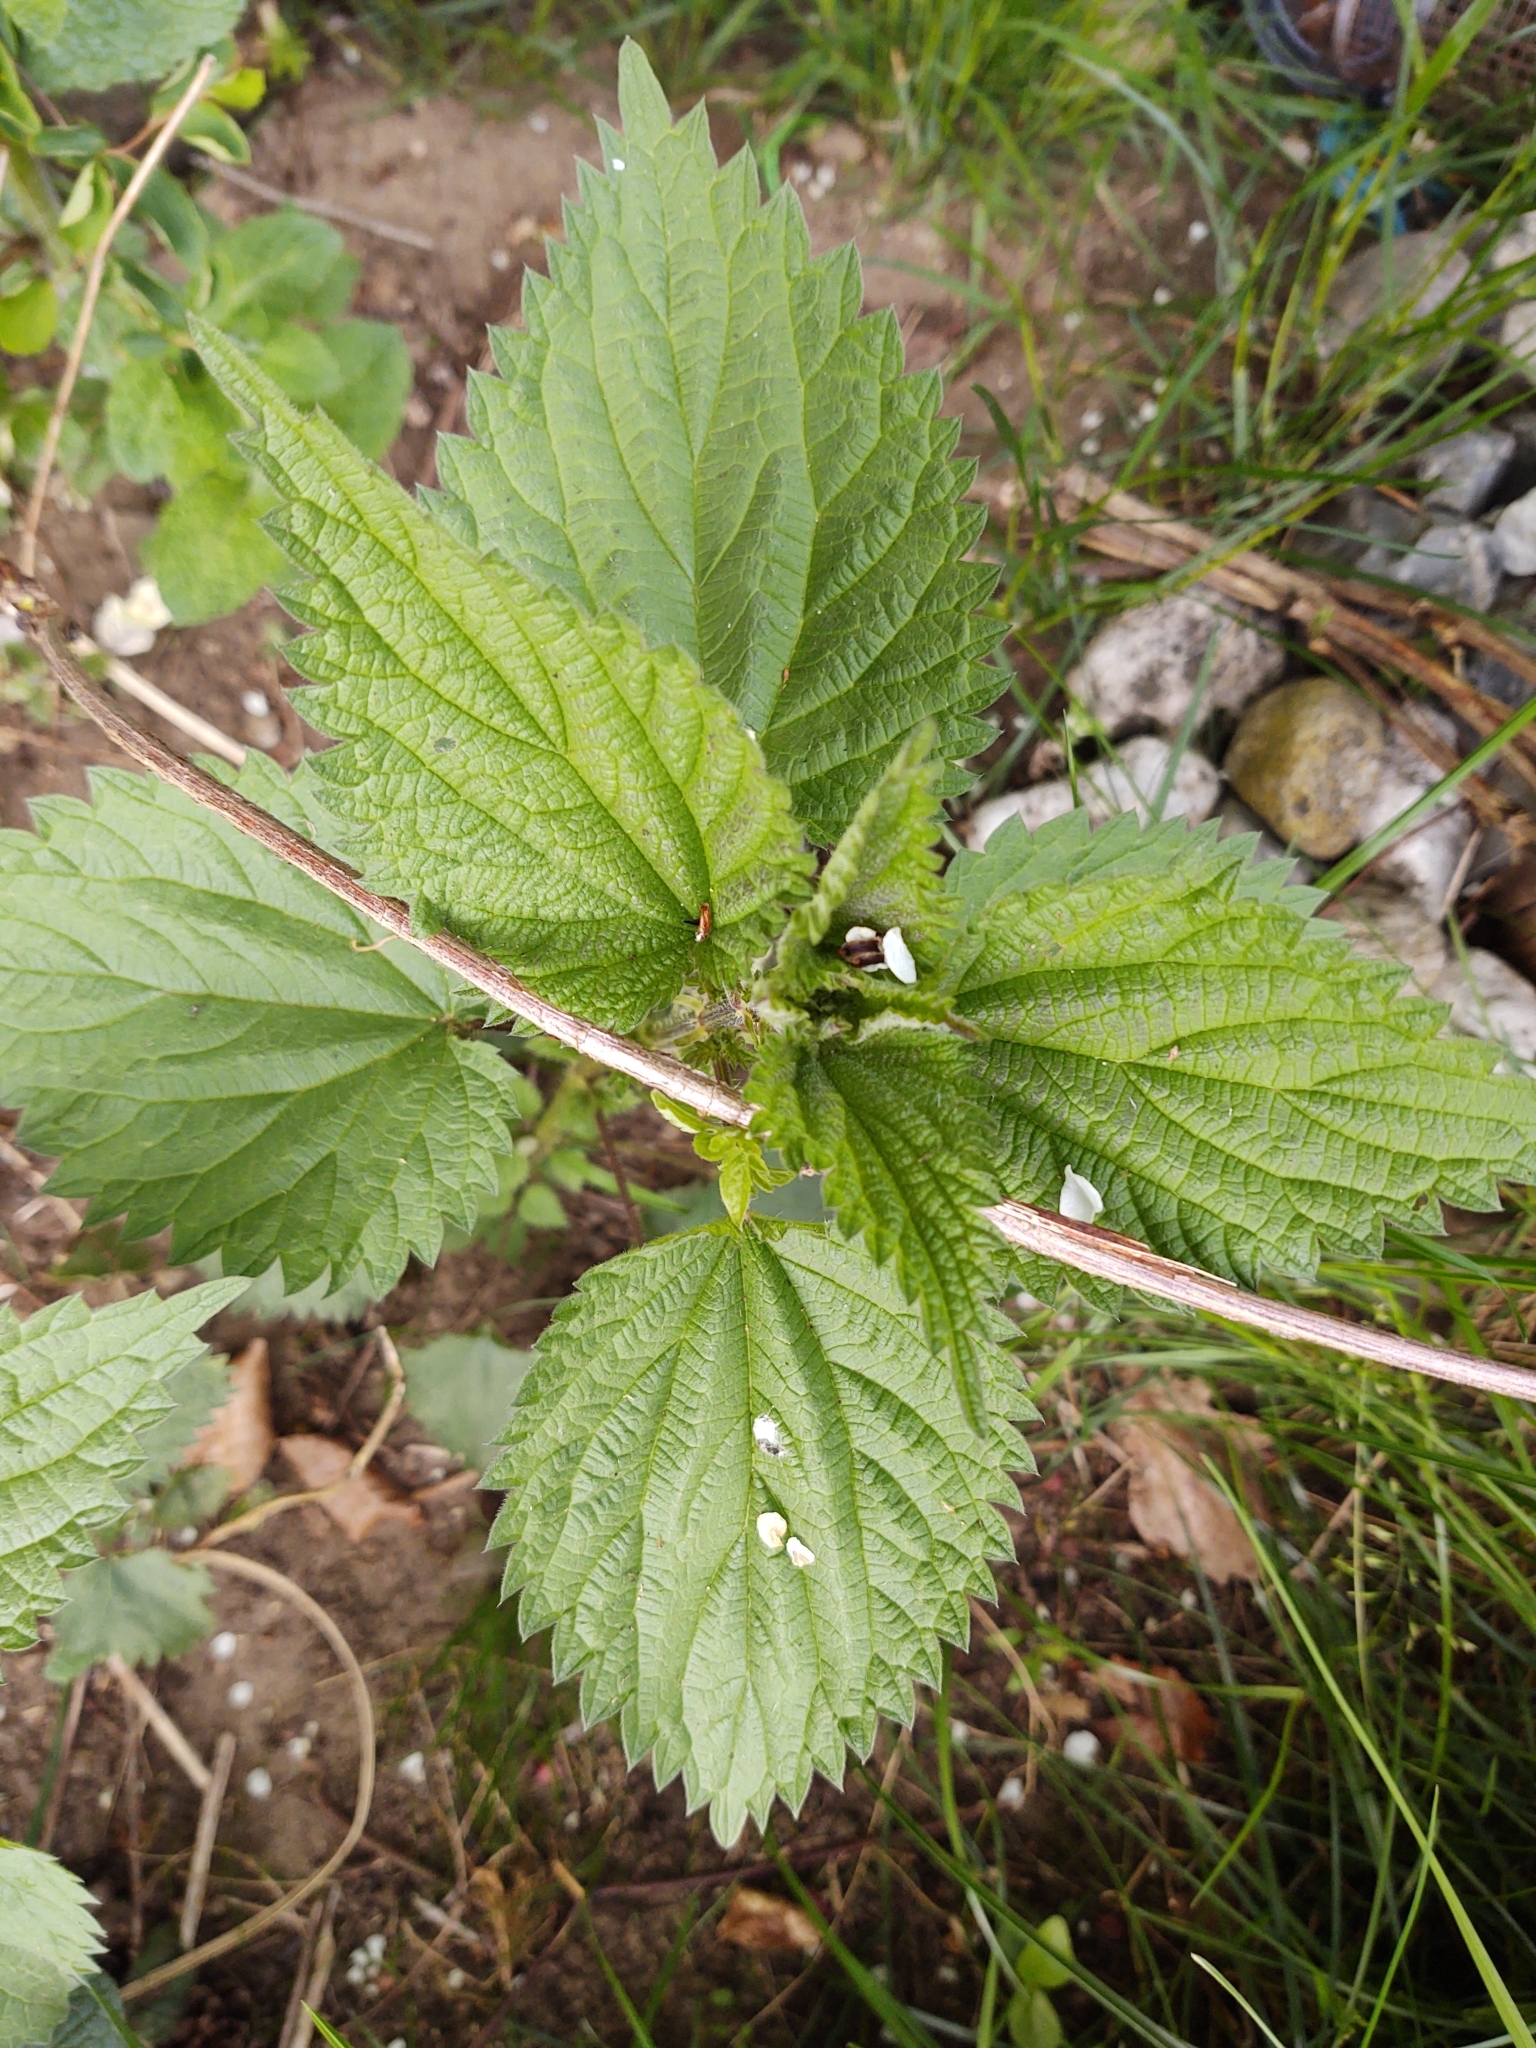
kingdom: Plantae
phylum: Tracheophyta
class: Magnoliopsida
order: Rosales
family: Urticaceae
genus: Urtica
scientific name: Urtica dioica
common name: Common nettle
